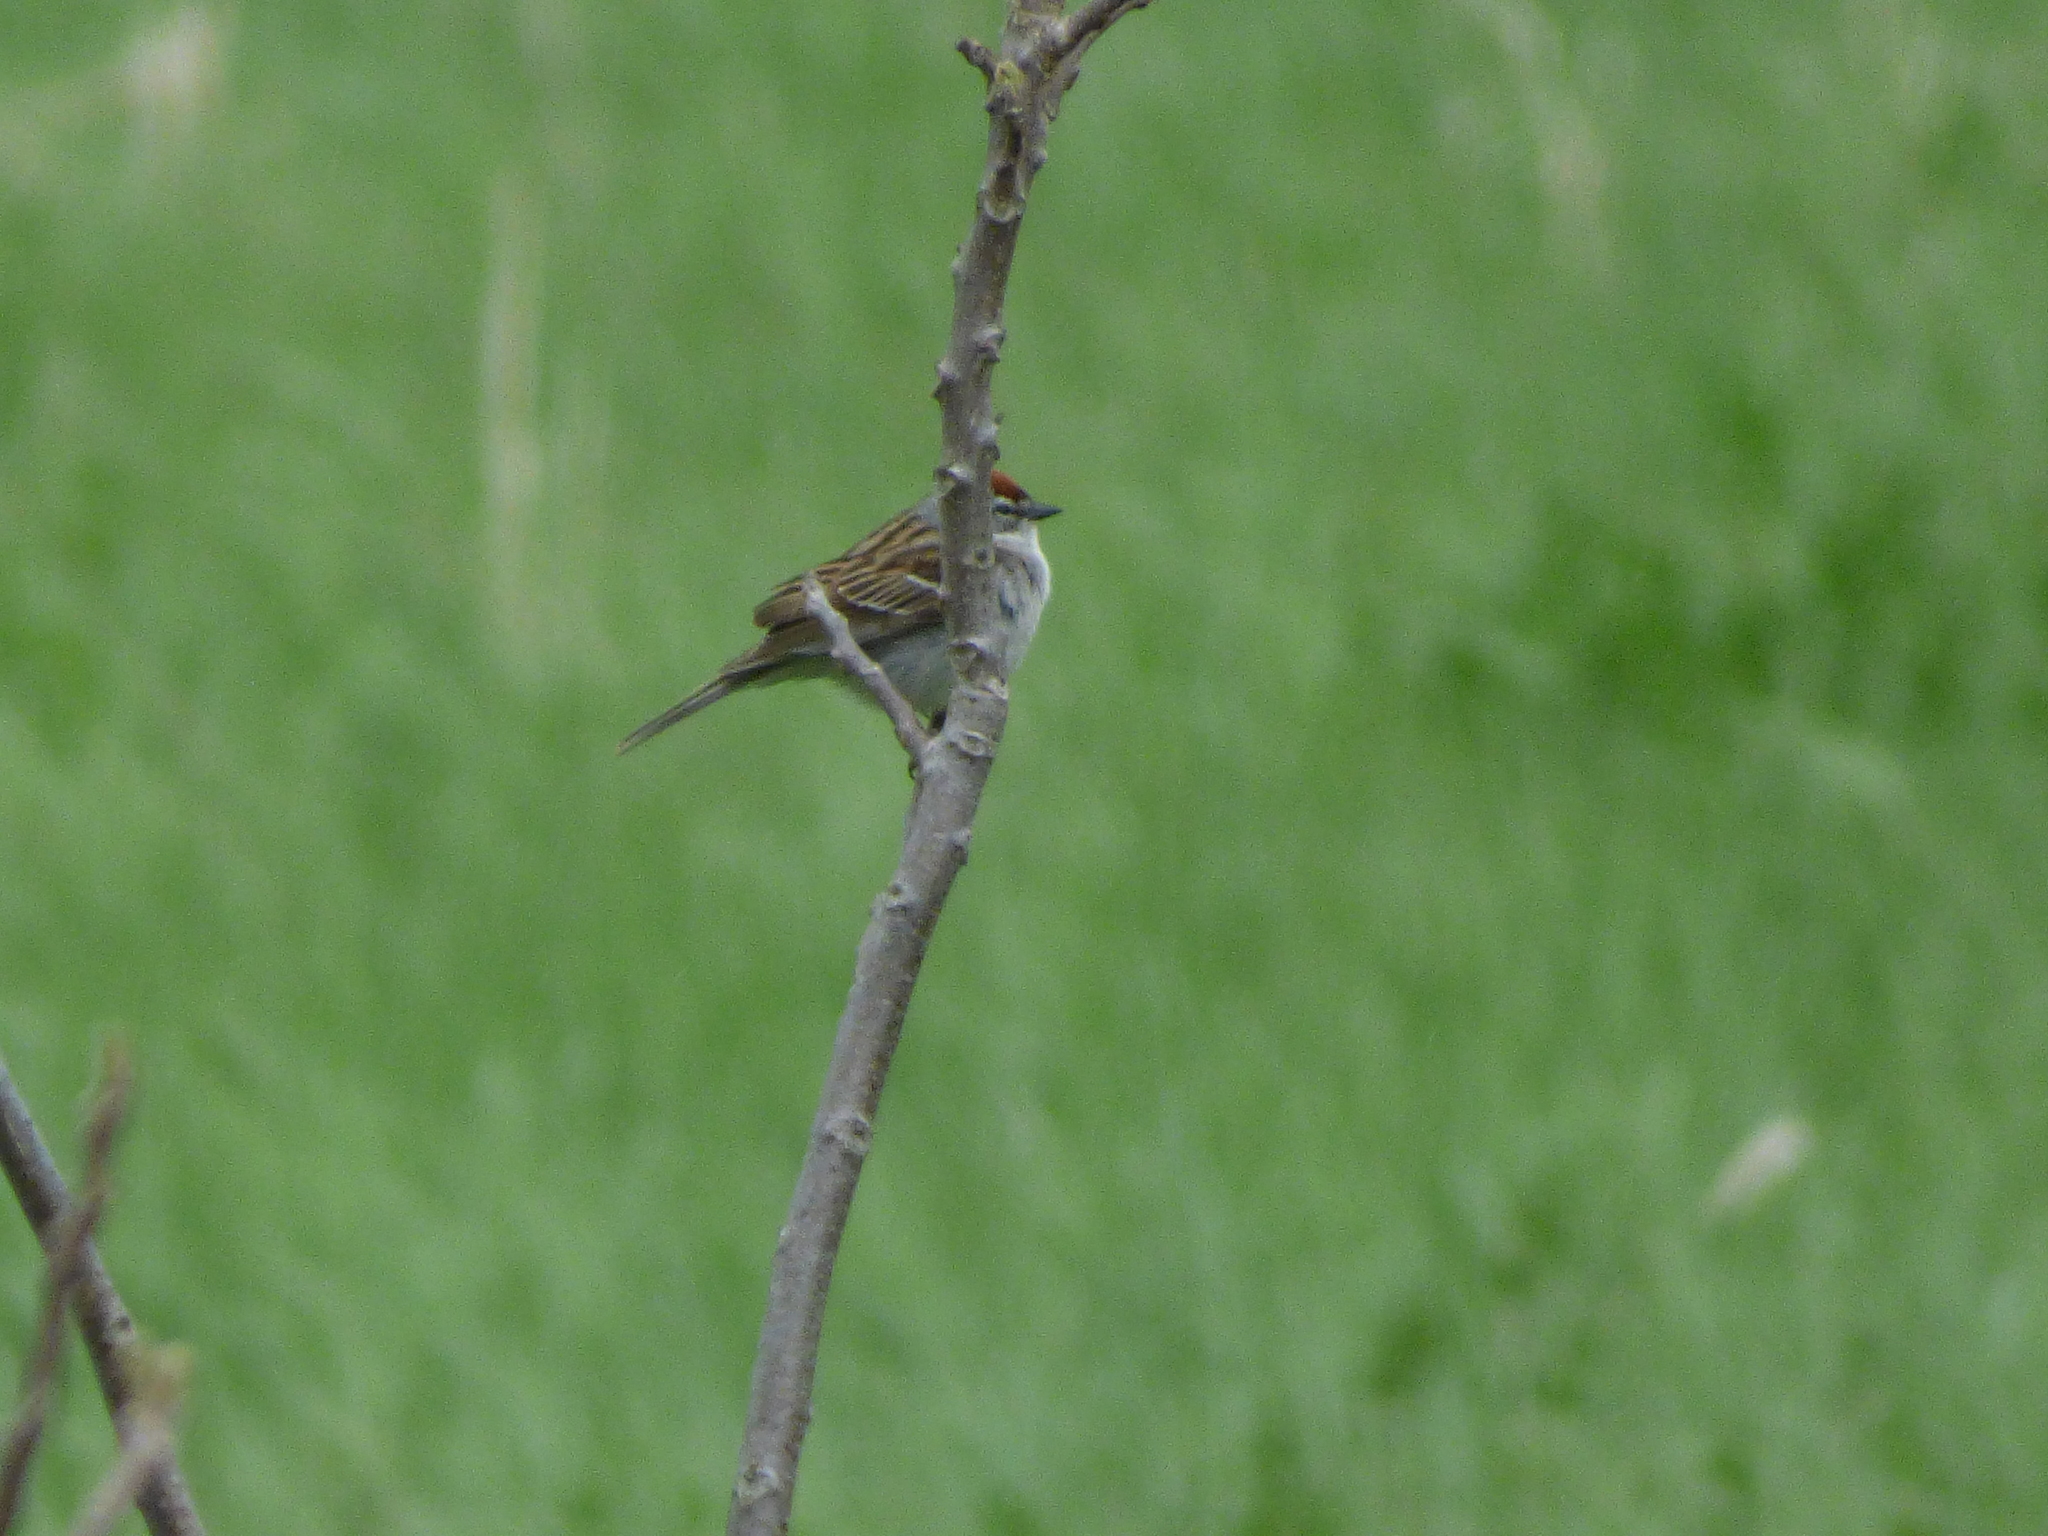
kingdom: Animalia
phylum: Chordata
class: Aves
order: Passeriformes
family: Passerellidae
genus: Spizella
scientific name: Spizella passerina
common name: Chipping sparrow
